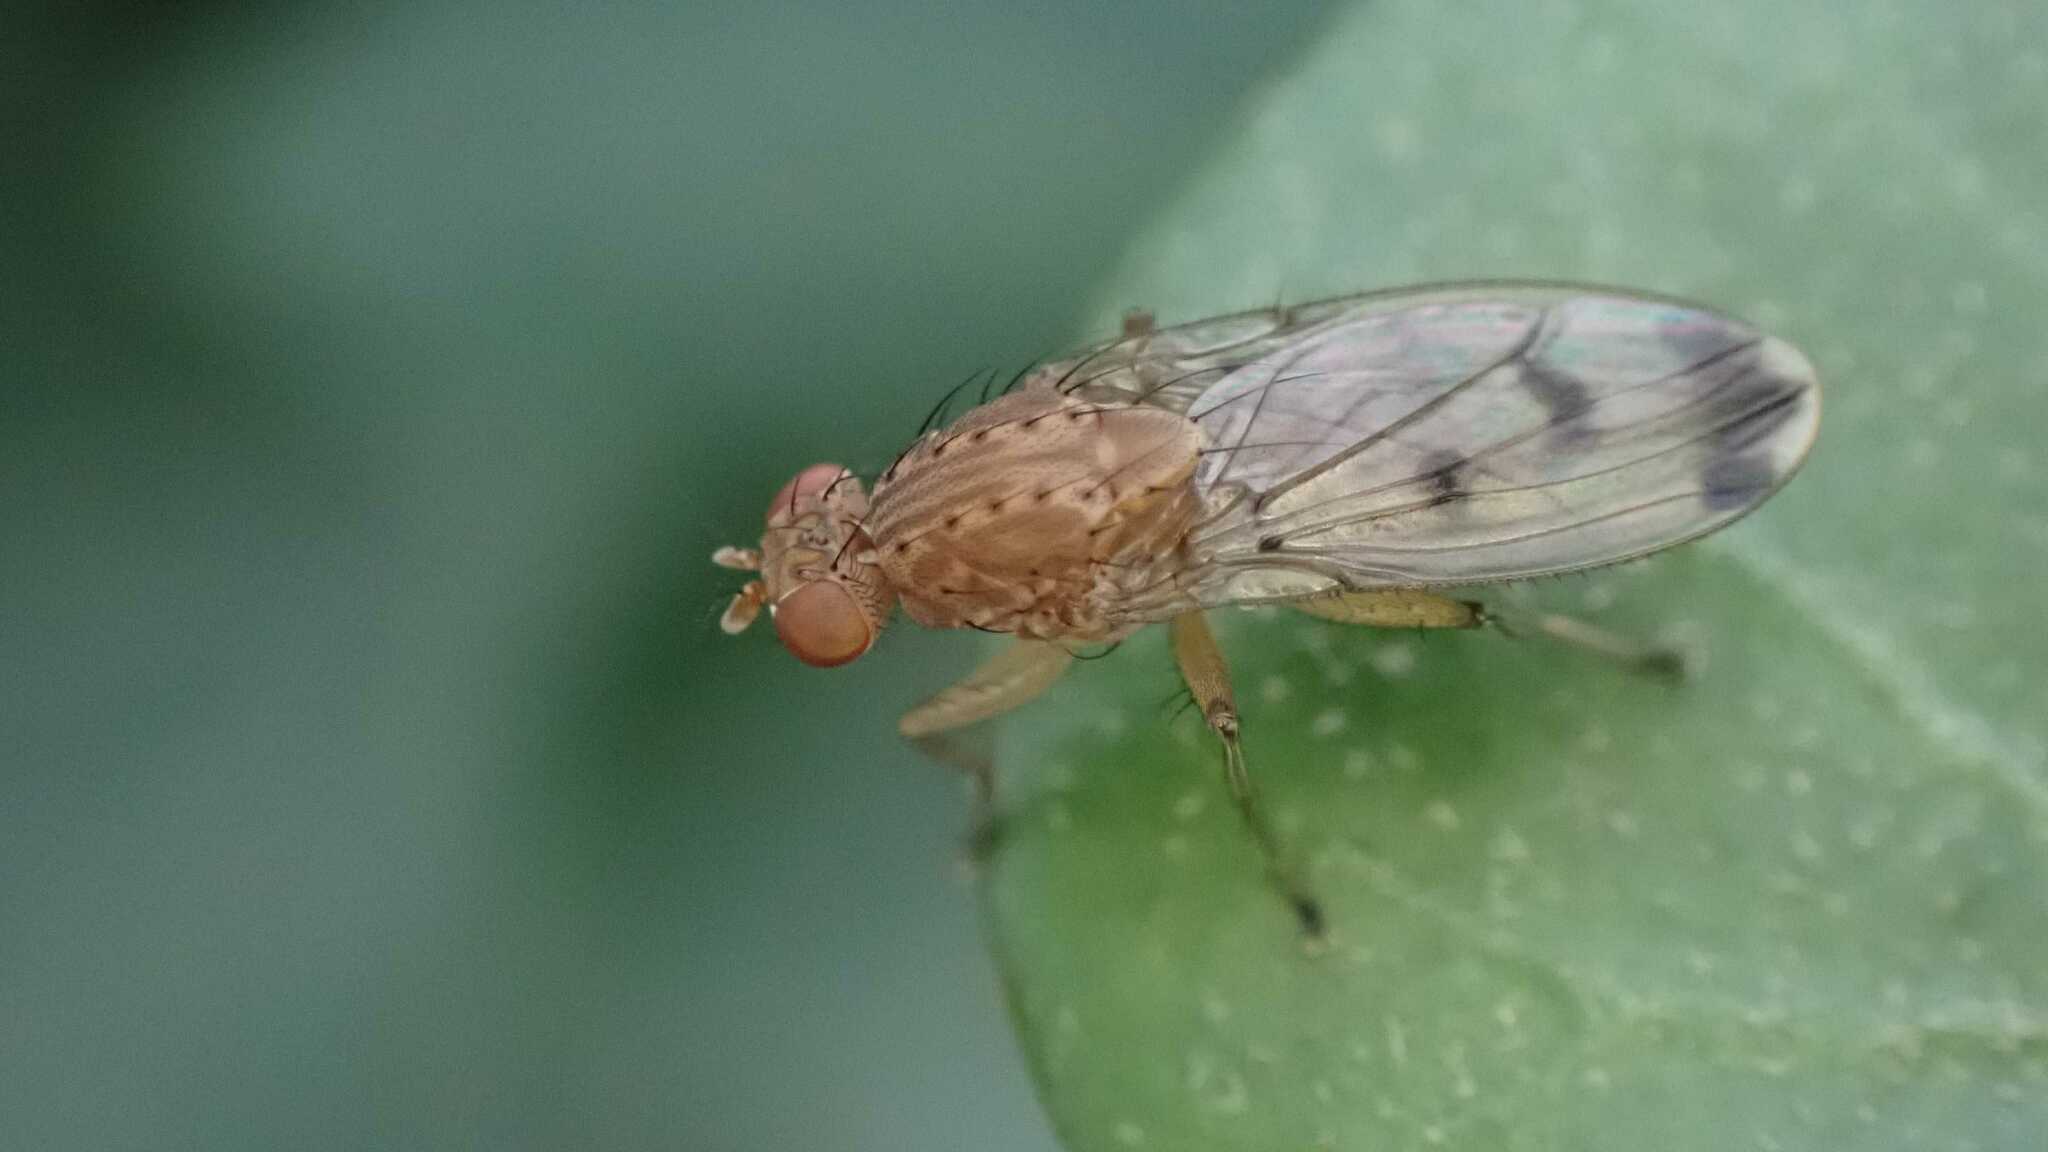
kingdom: Animalia
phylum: Arthropoda
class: Insecta
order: Diptera
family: Heleomyzidae
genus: Suillia
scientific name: Suillia variegata
